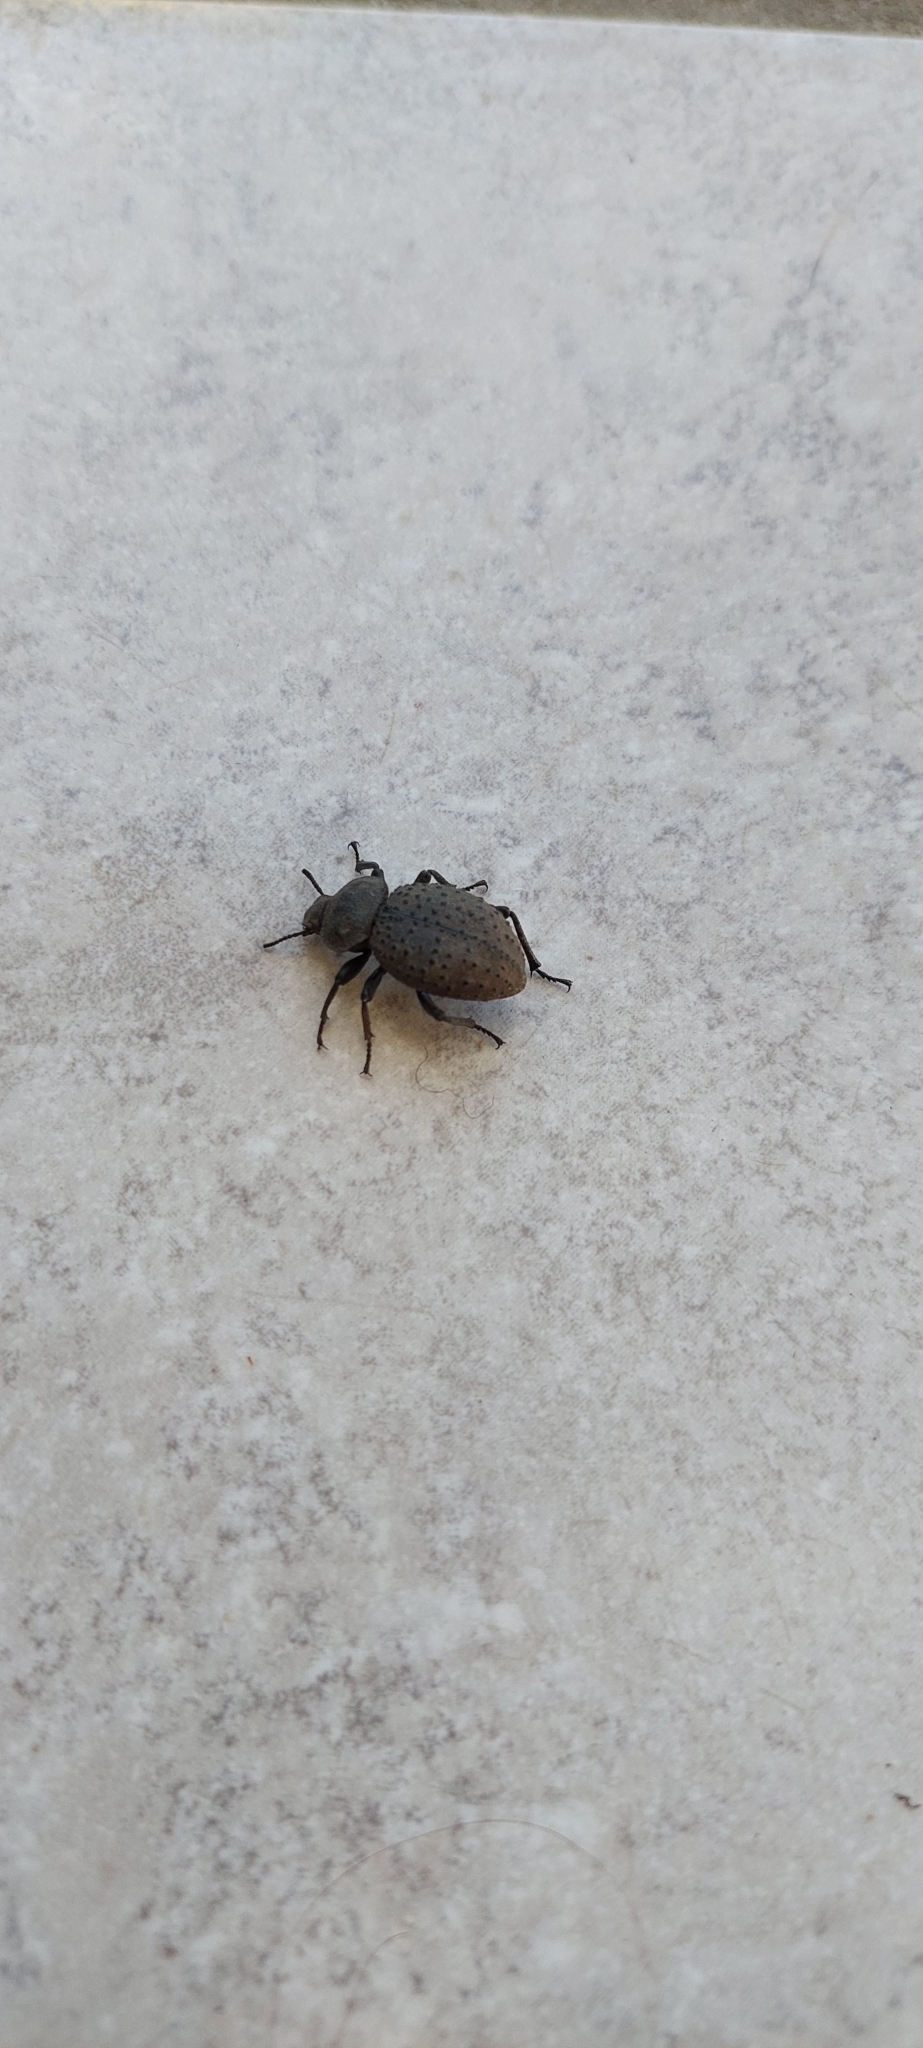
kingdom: Animalia
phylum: Arthropoda
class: Insecta
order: Coleoptera
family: Tenebrionidae
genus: Scotobius
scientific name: Scotobius pilularius
